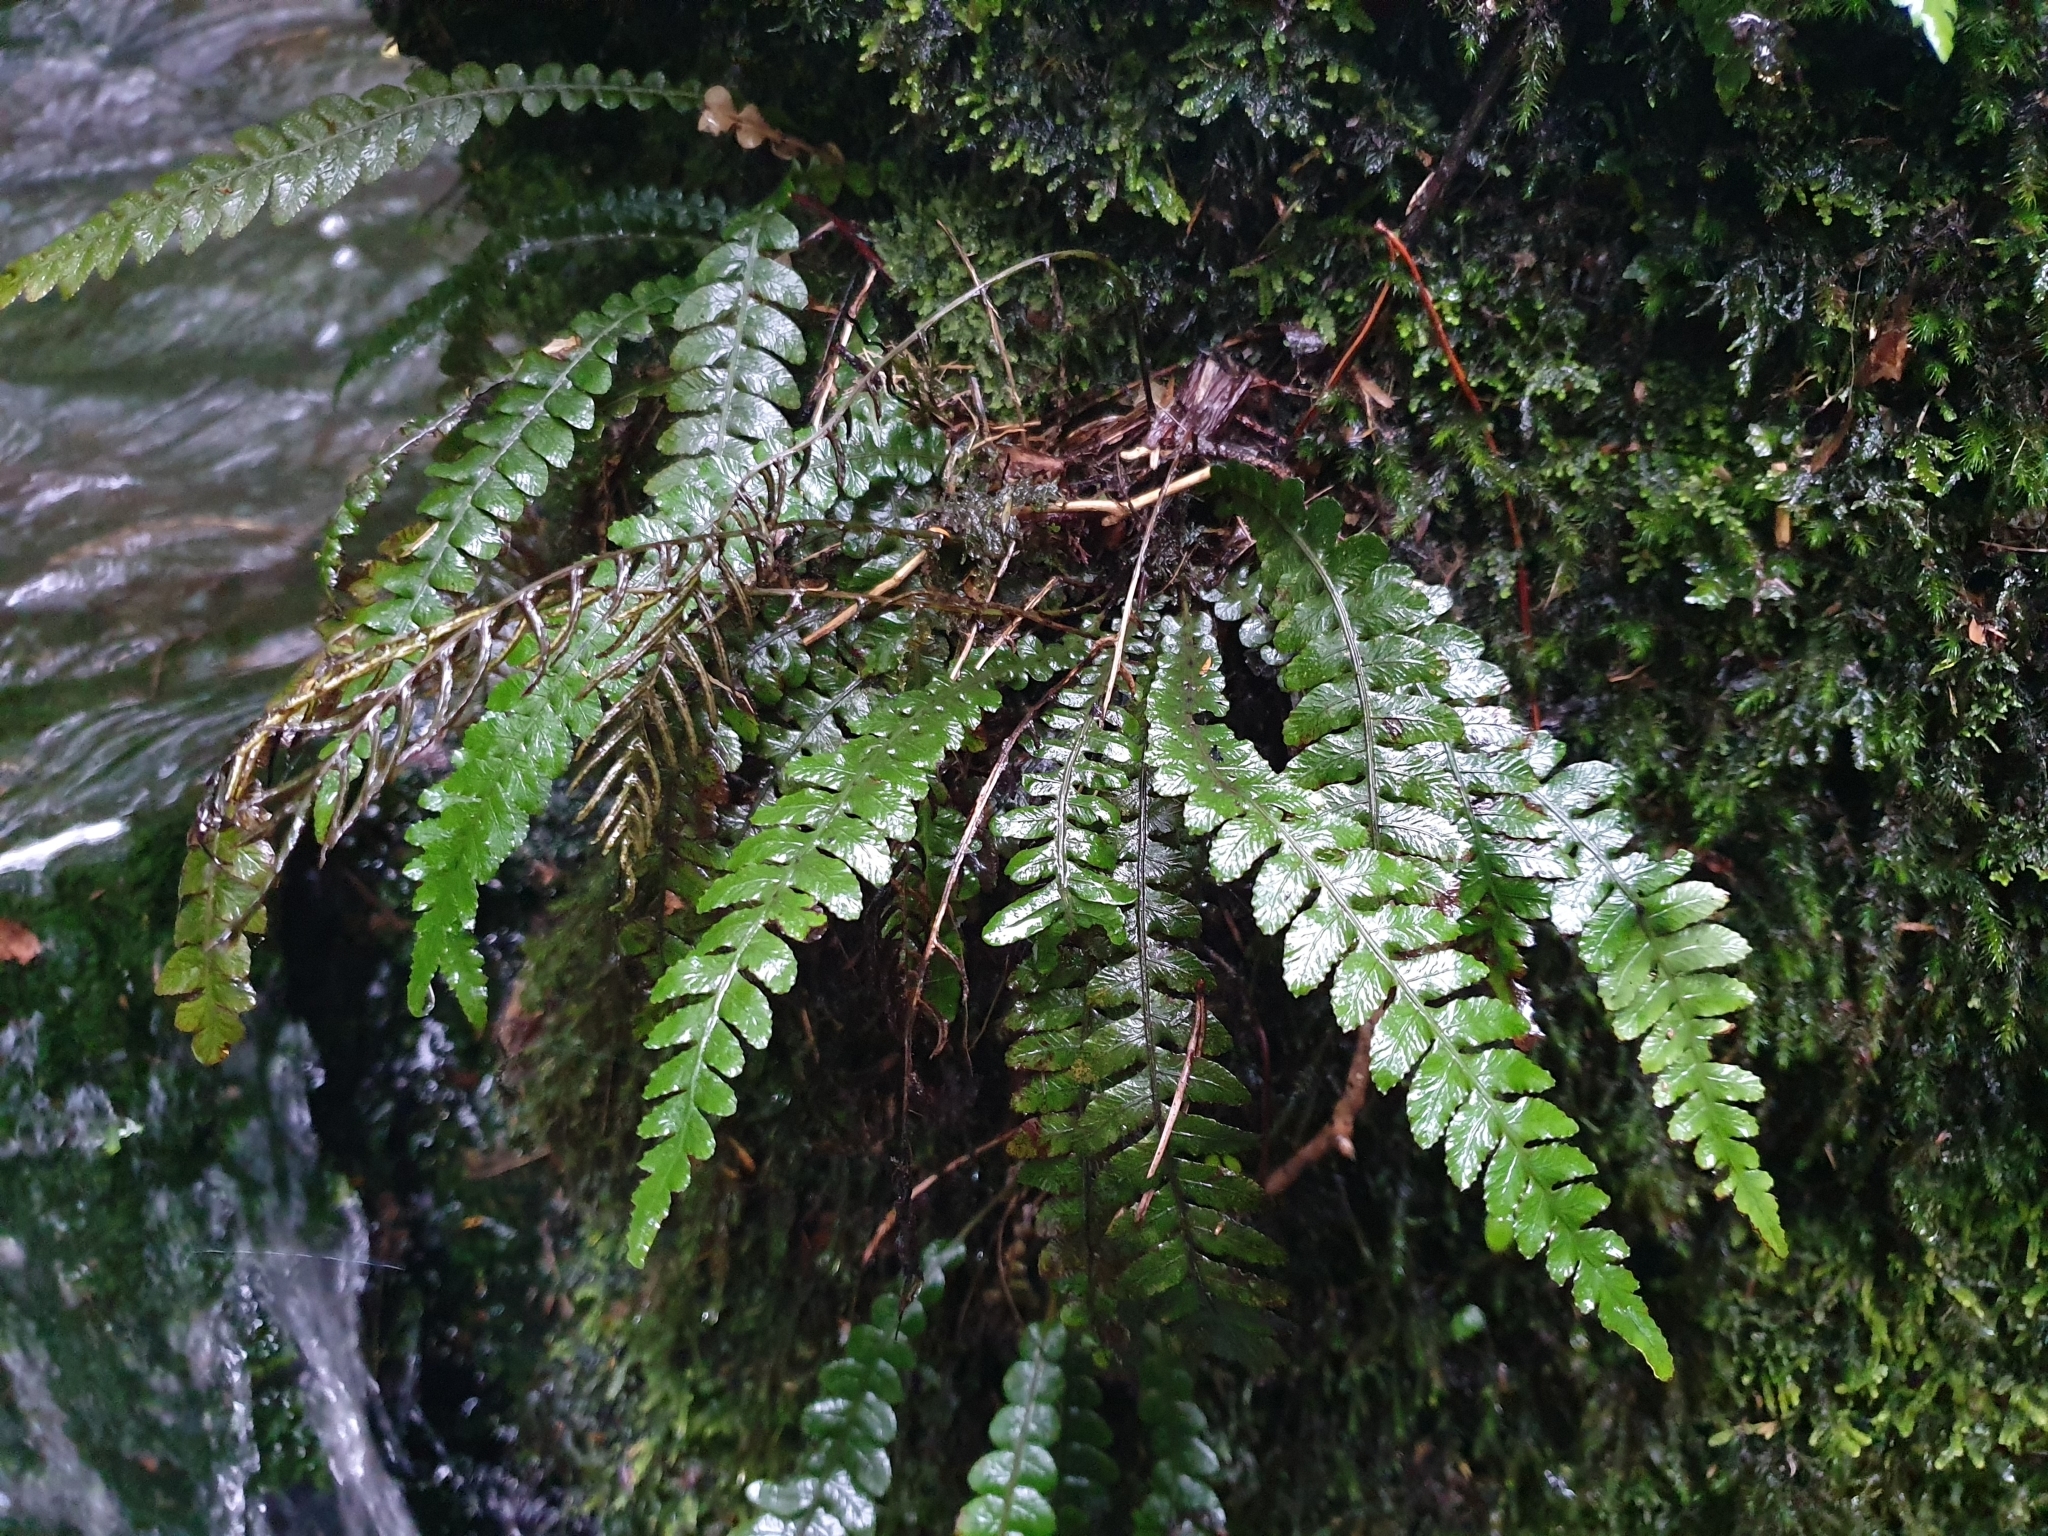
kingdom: Plantae
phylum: Tracheophyta
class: Polypodiopsida
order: Polypodiales
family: Blechnaceae
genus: Austroblechnum
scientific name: Austroblechnum lanceolatum
